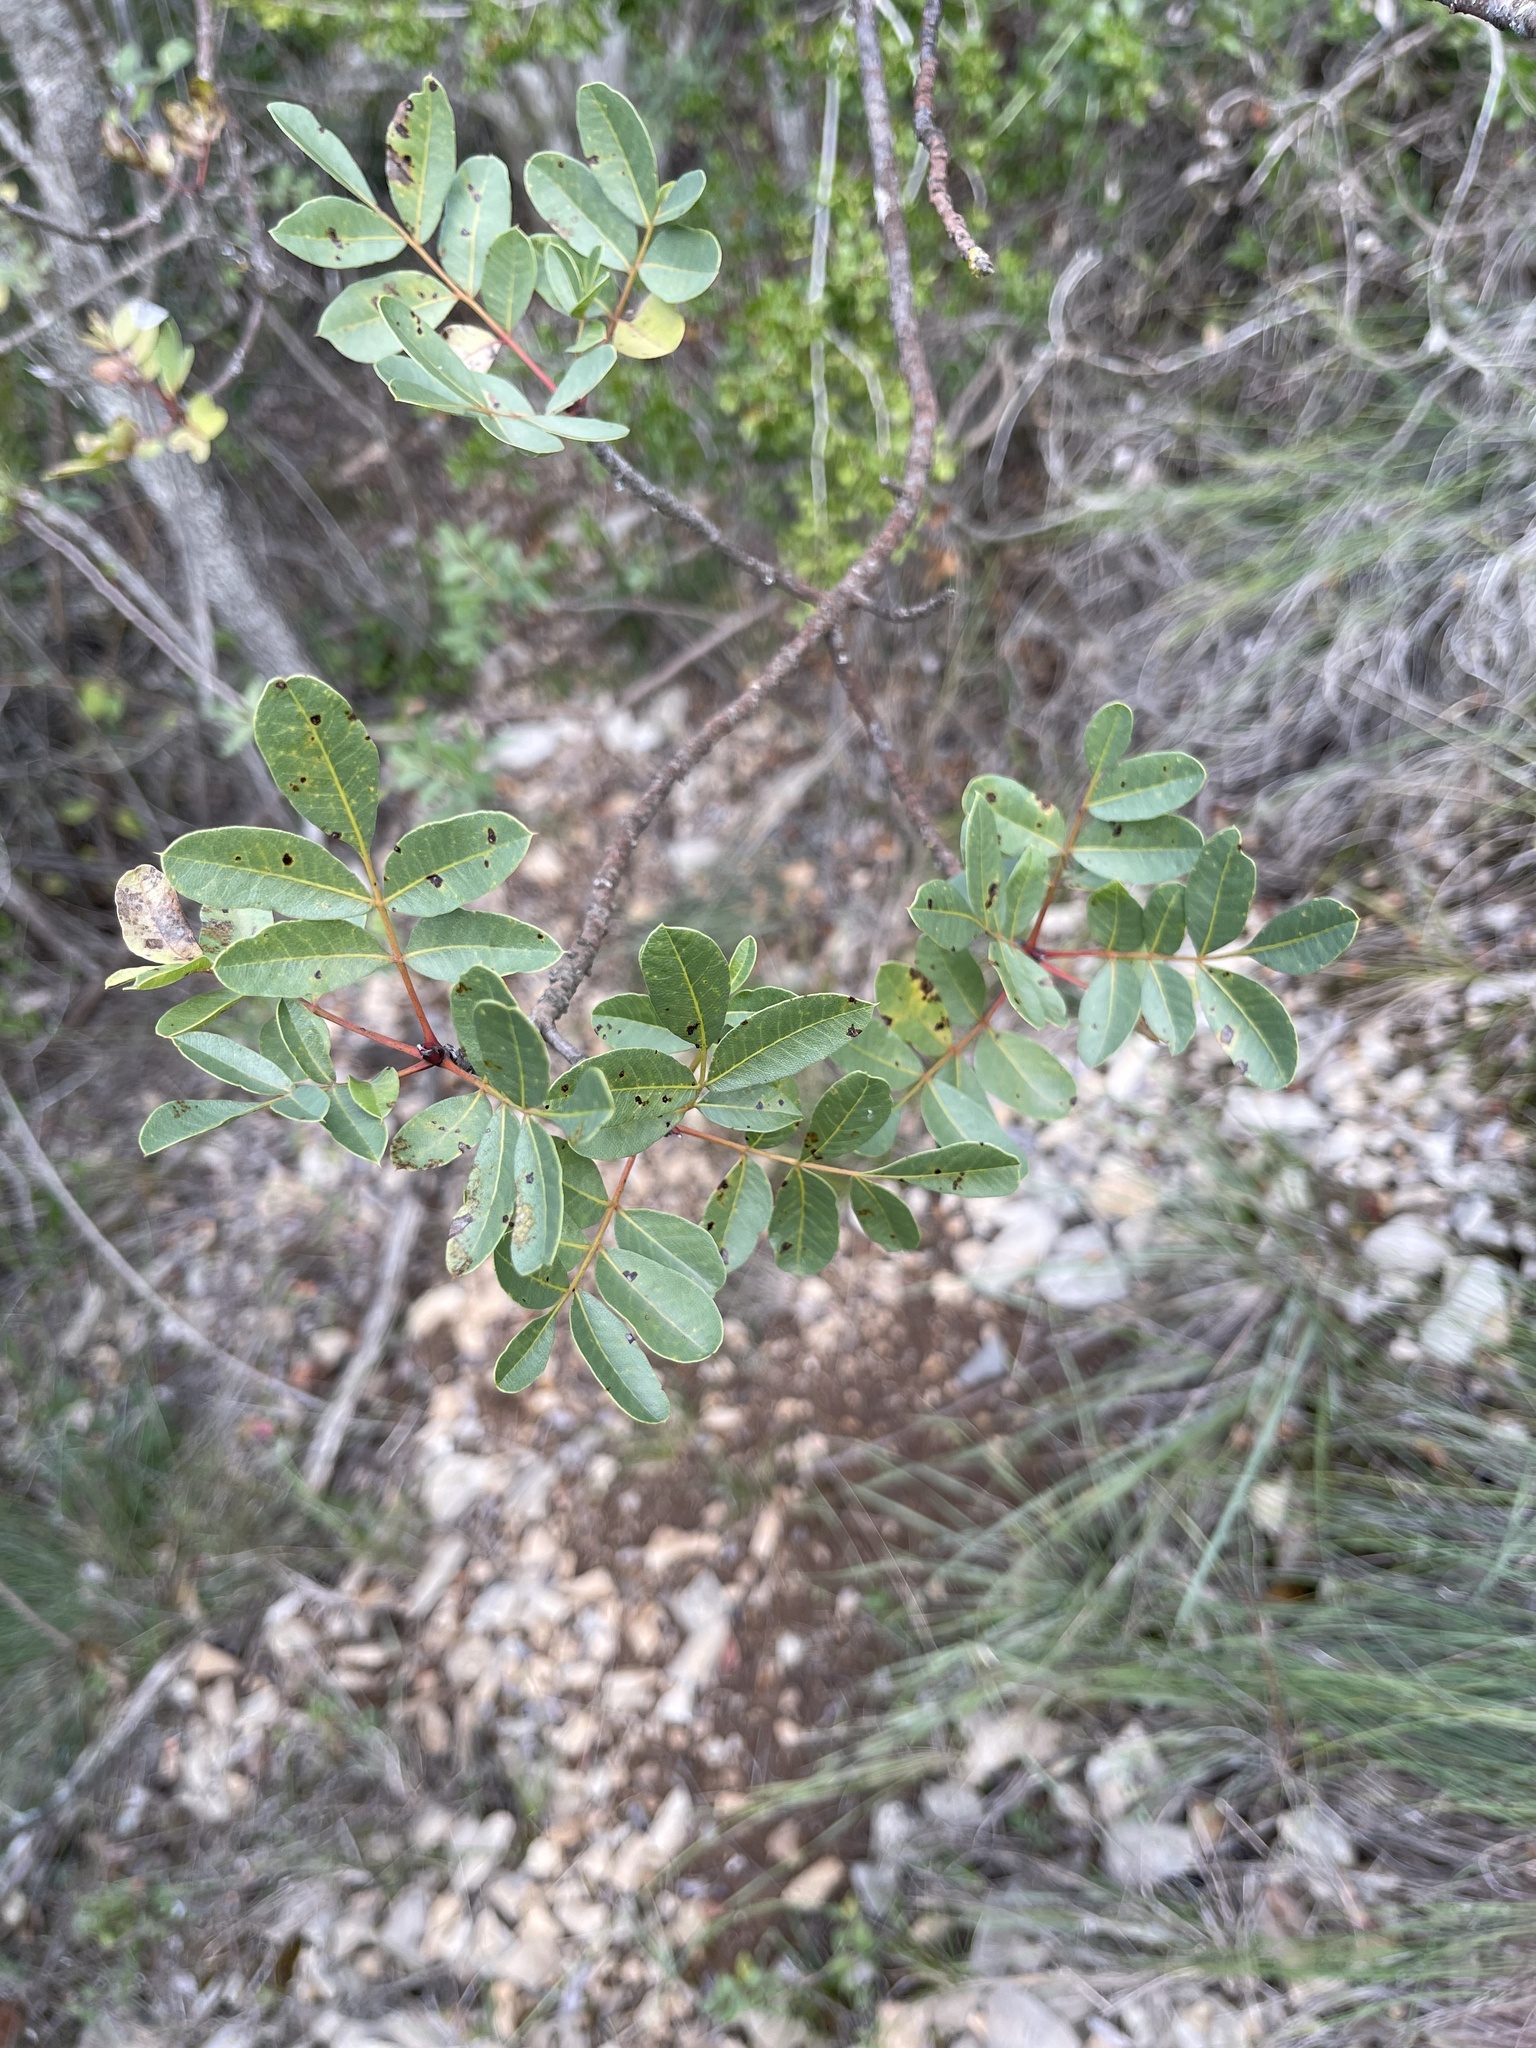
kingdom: Plantae
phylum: Tracheophyta
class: Magnoliopsida
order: Sapindales
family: Anacardiaceae
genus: Pistacia
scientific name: Pistacia terebinthus
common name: Terebinth
